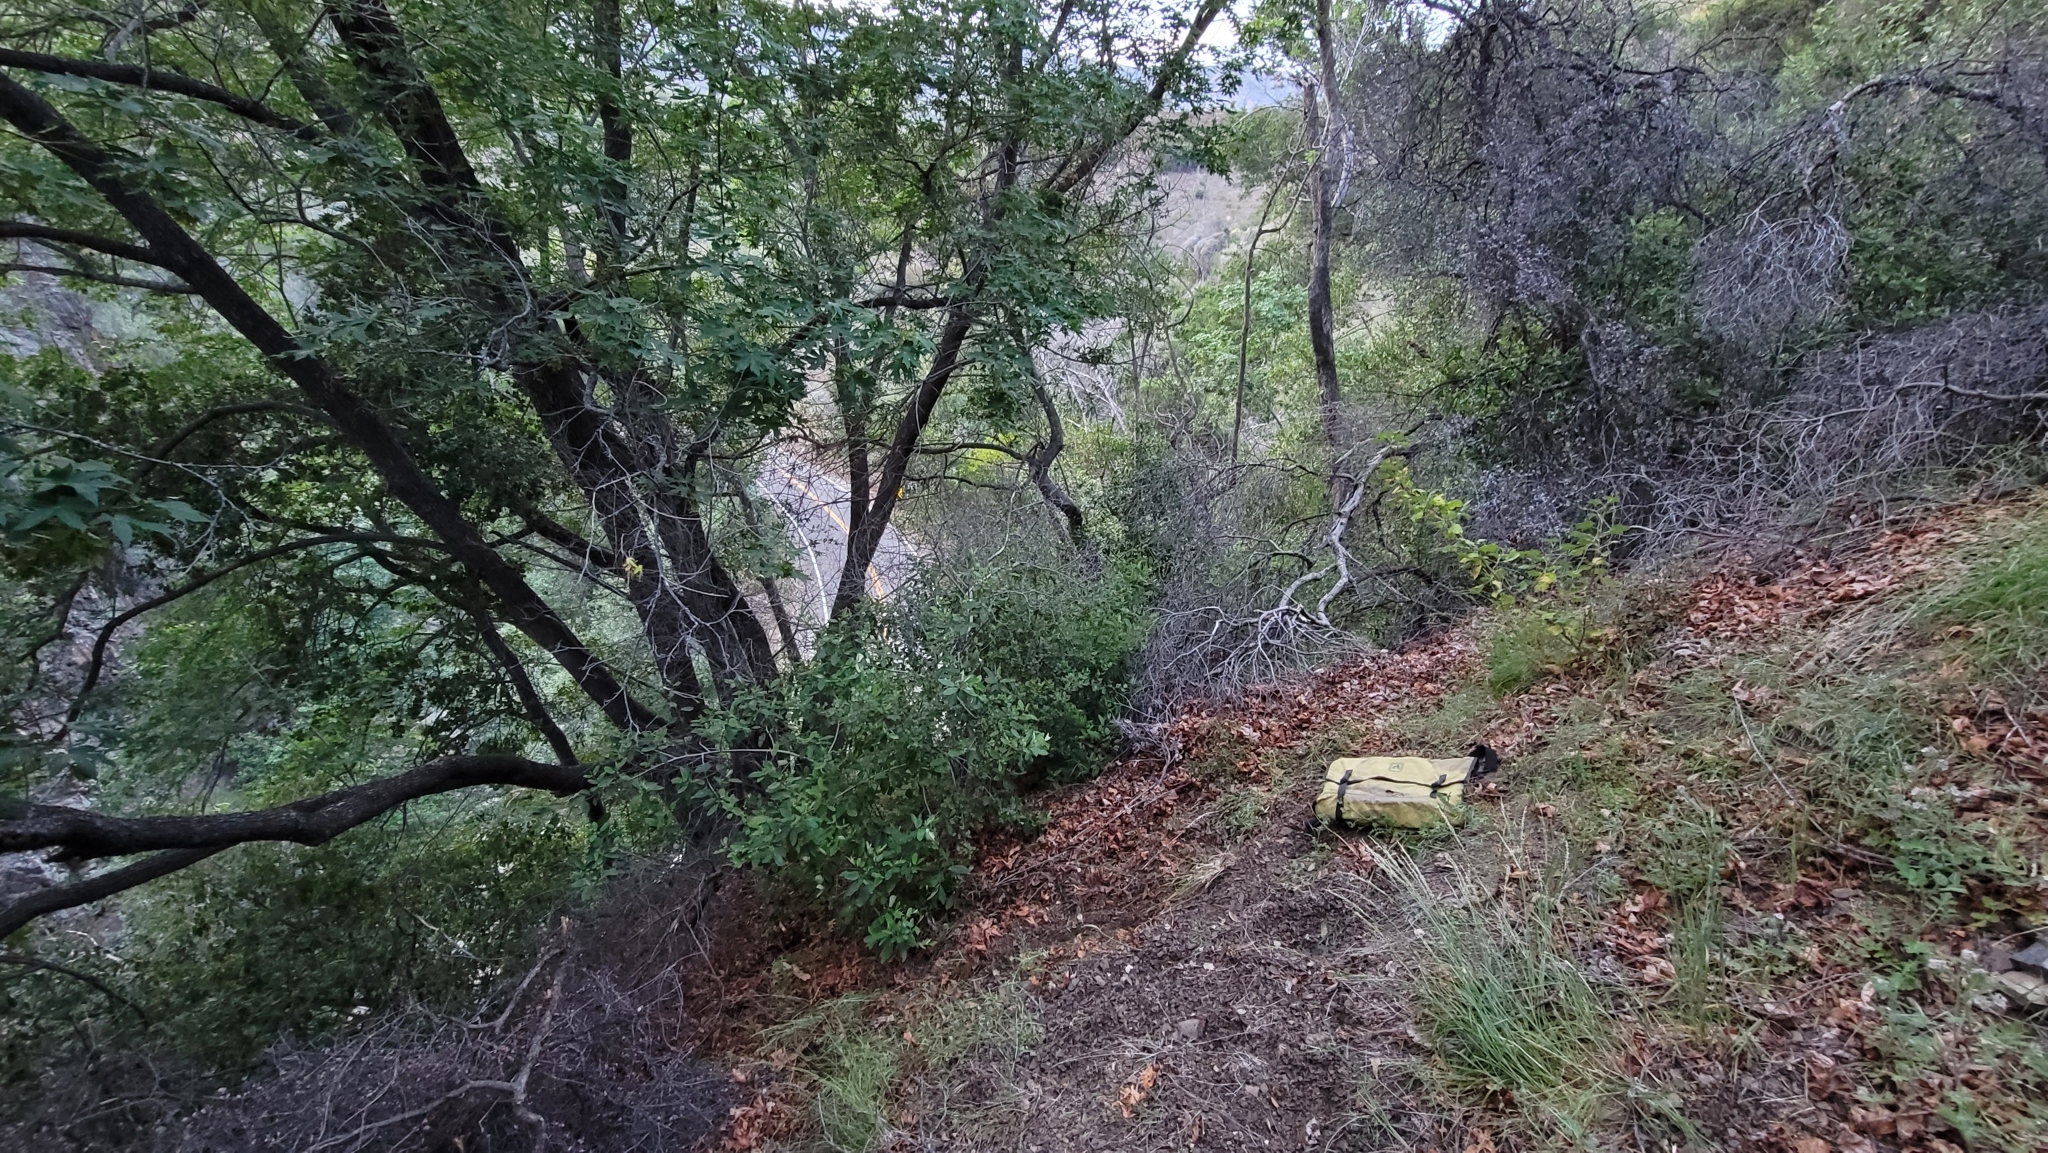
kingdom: Plantae
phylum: Tracheophyta
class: Liliopsida
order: Liliales
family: Liliaceae
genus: Fritillaria
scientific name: Fritillaria ojaiensis
